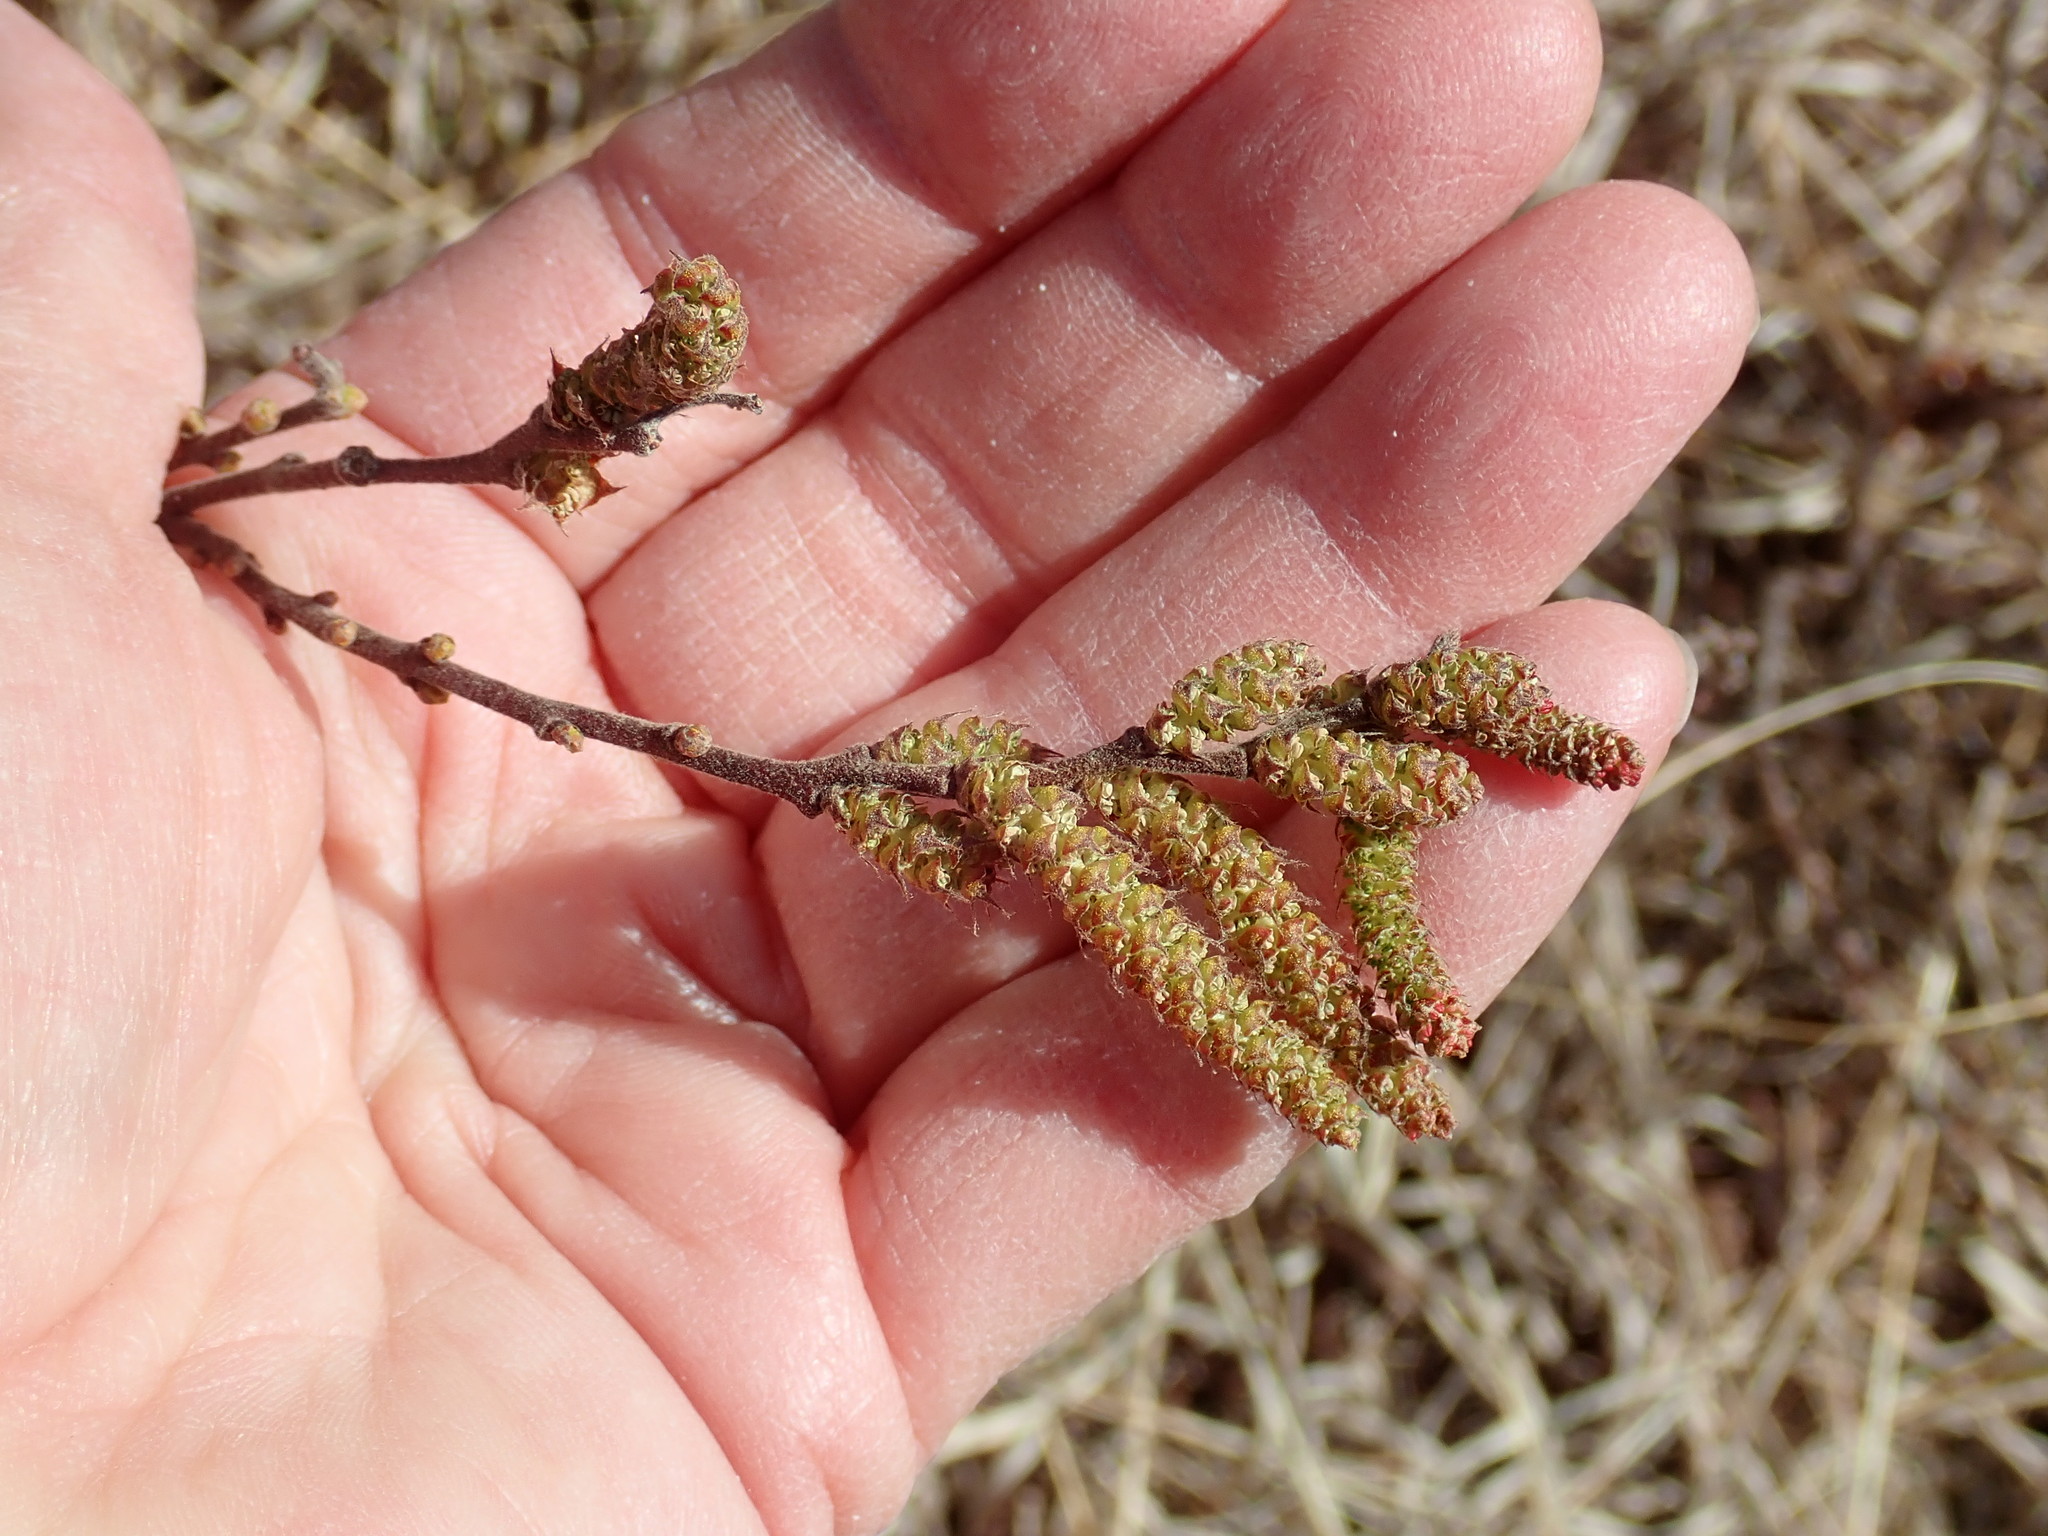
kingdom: Plantae
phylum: Tracheophyta
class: Magnoliopsida
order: Fagales
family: Myricaceae
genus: Comptonia
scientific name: Comptonia peregrina
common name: Sweet-fern
